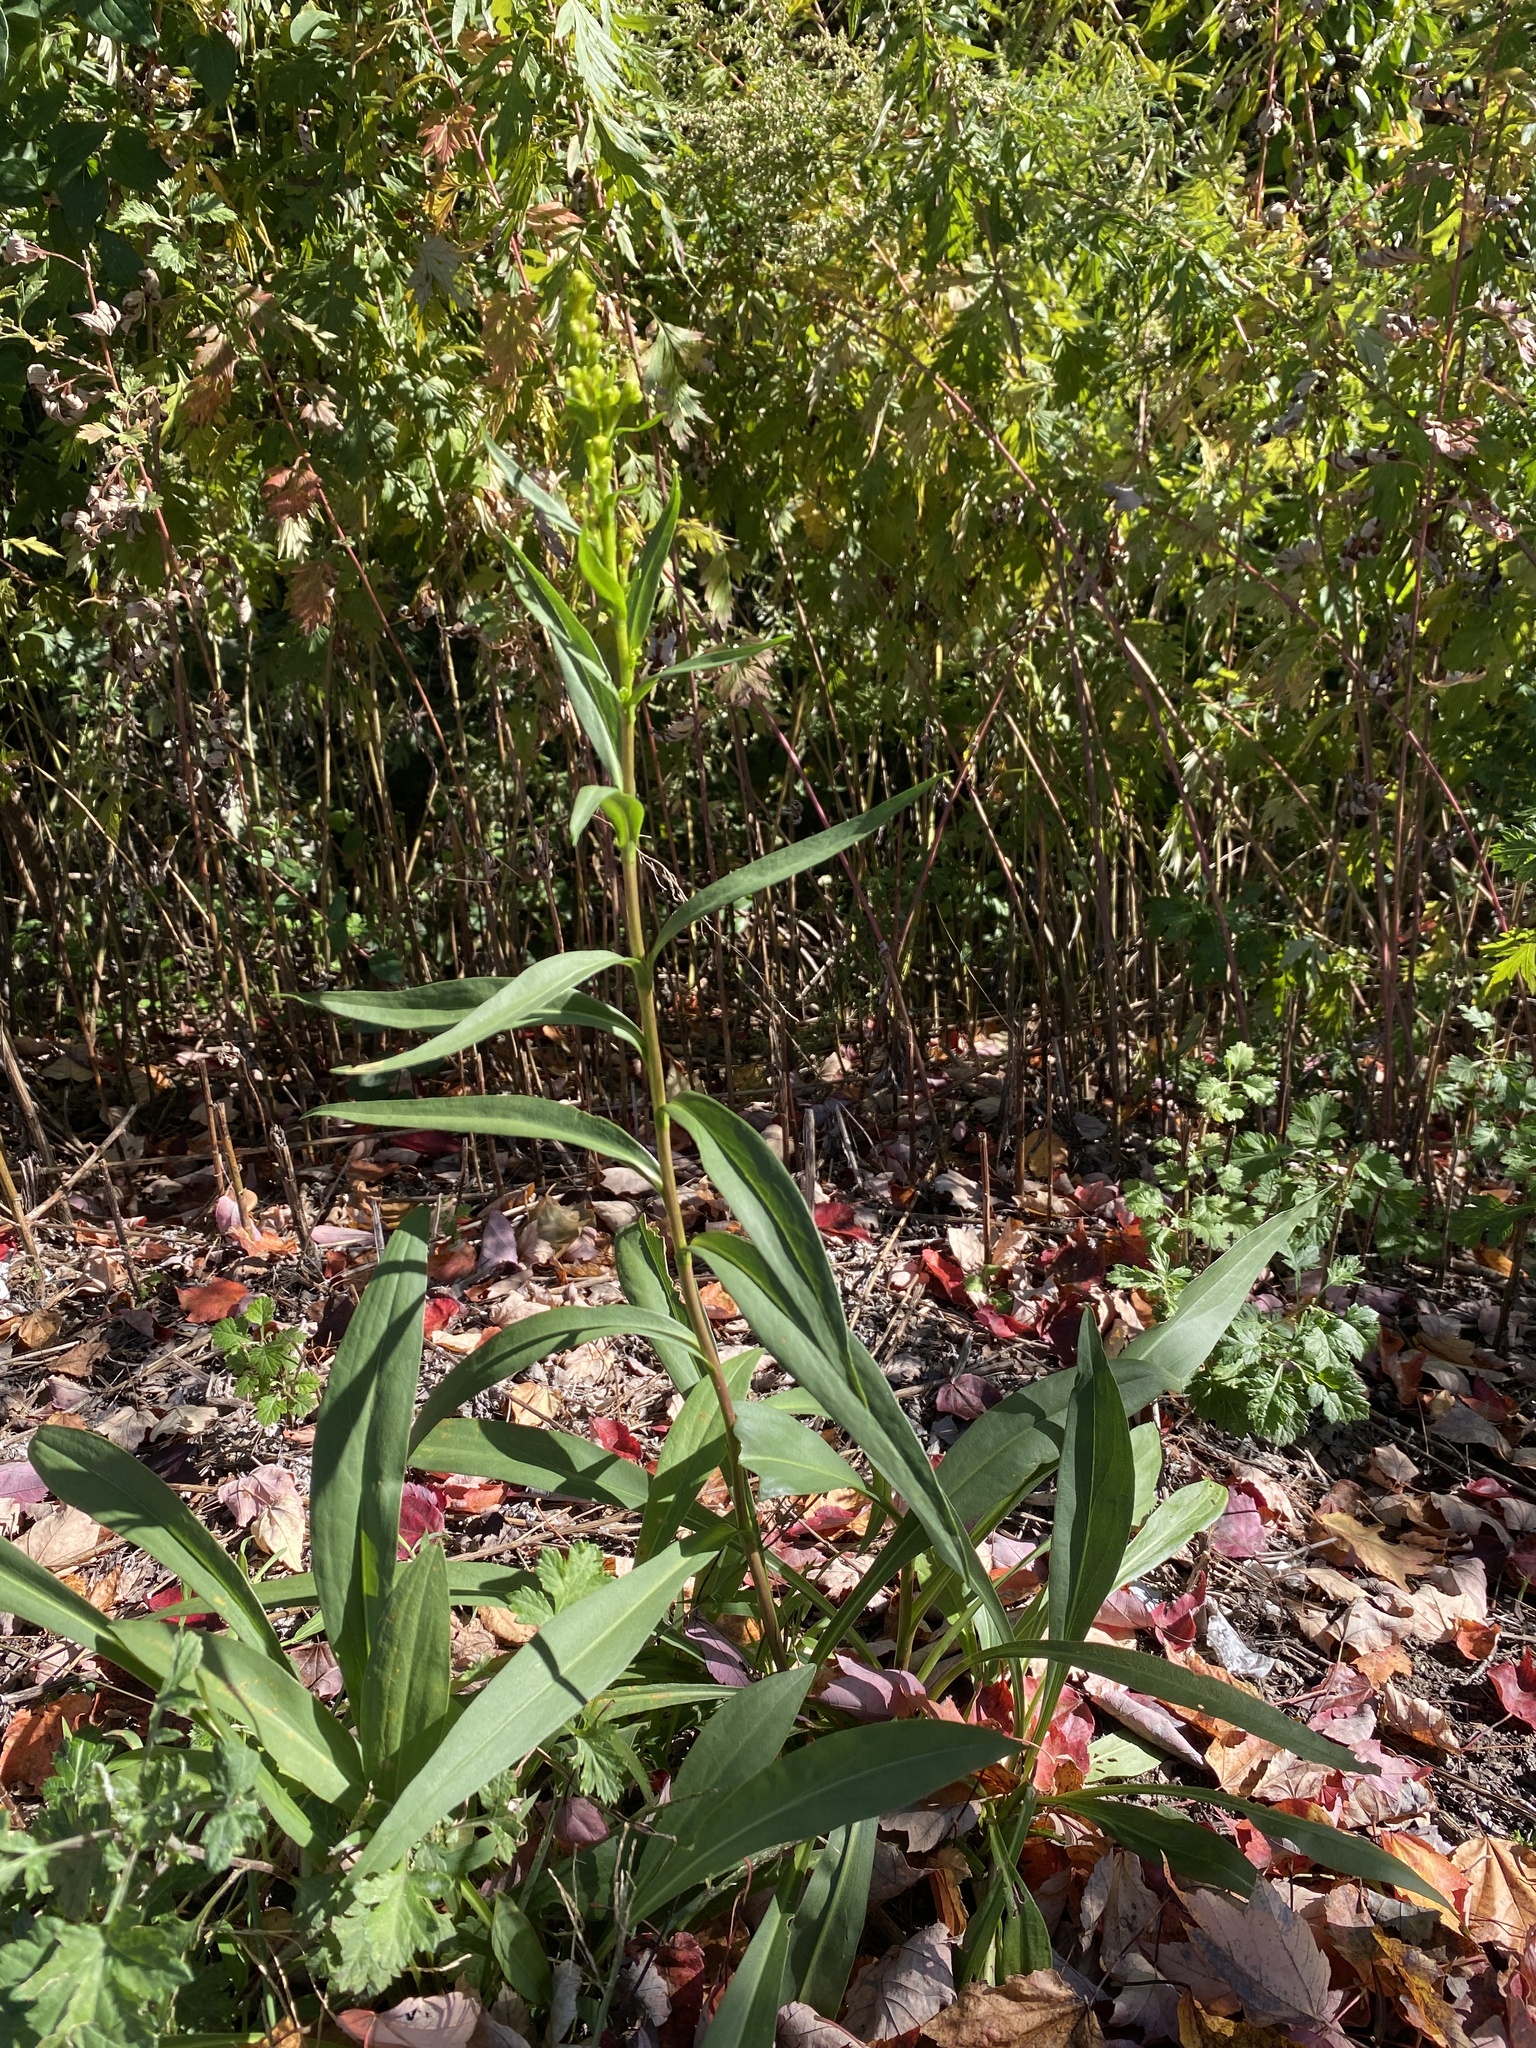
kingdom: Plantae
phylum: Tracheophyta
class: Magnoliopsida
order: Asterales
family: Asteraceae
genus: Solidago
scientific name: Solidago sempervirens
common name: Salt-marsh goldenrod
